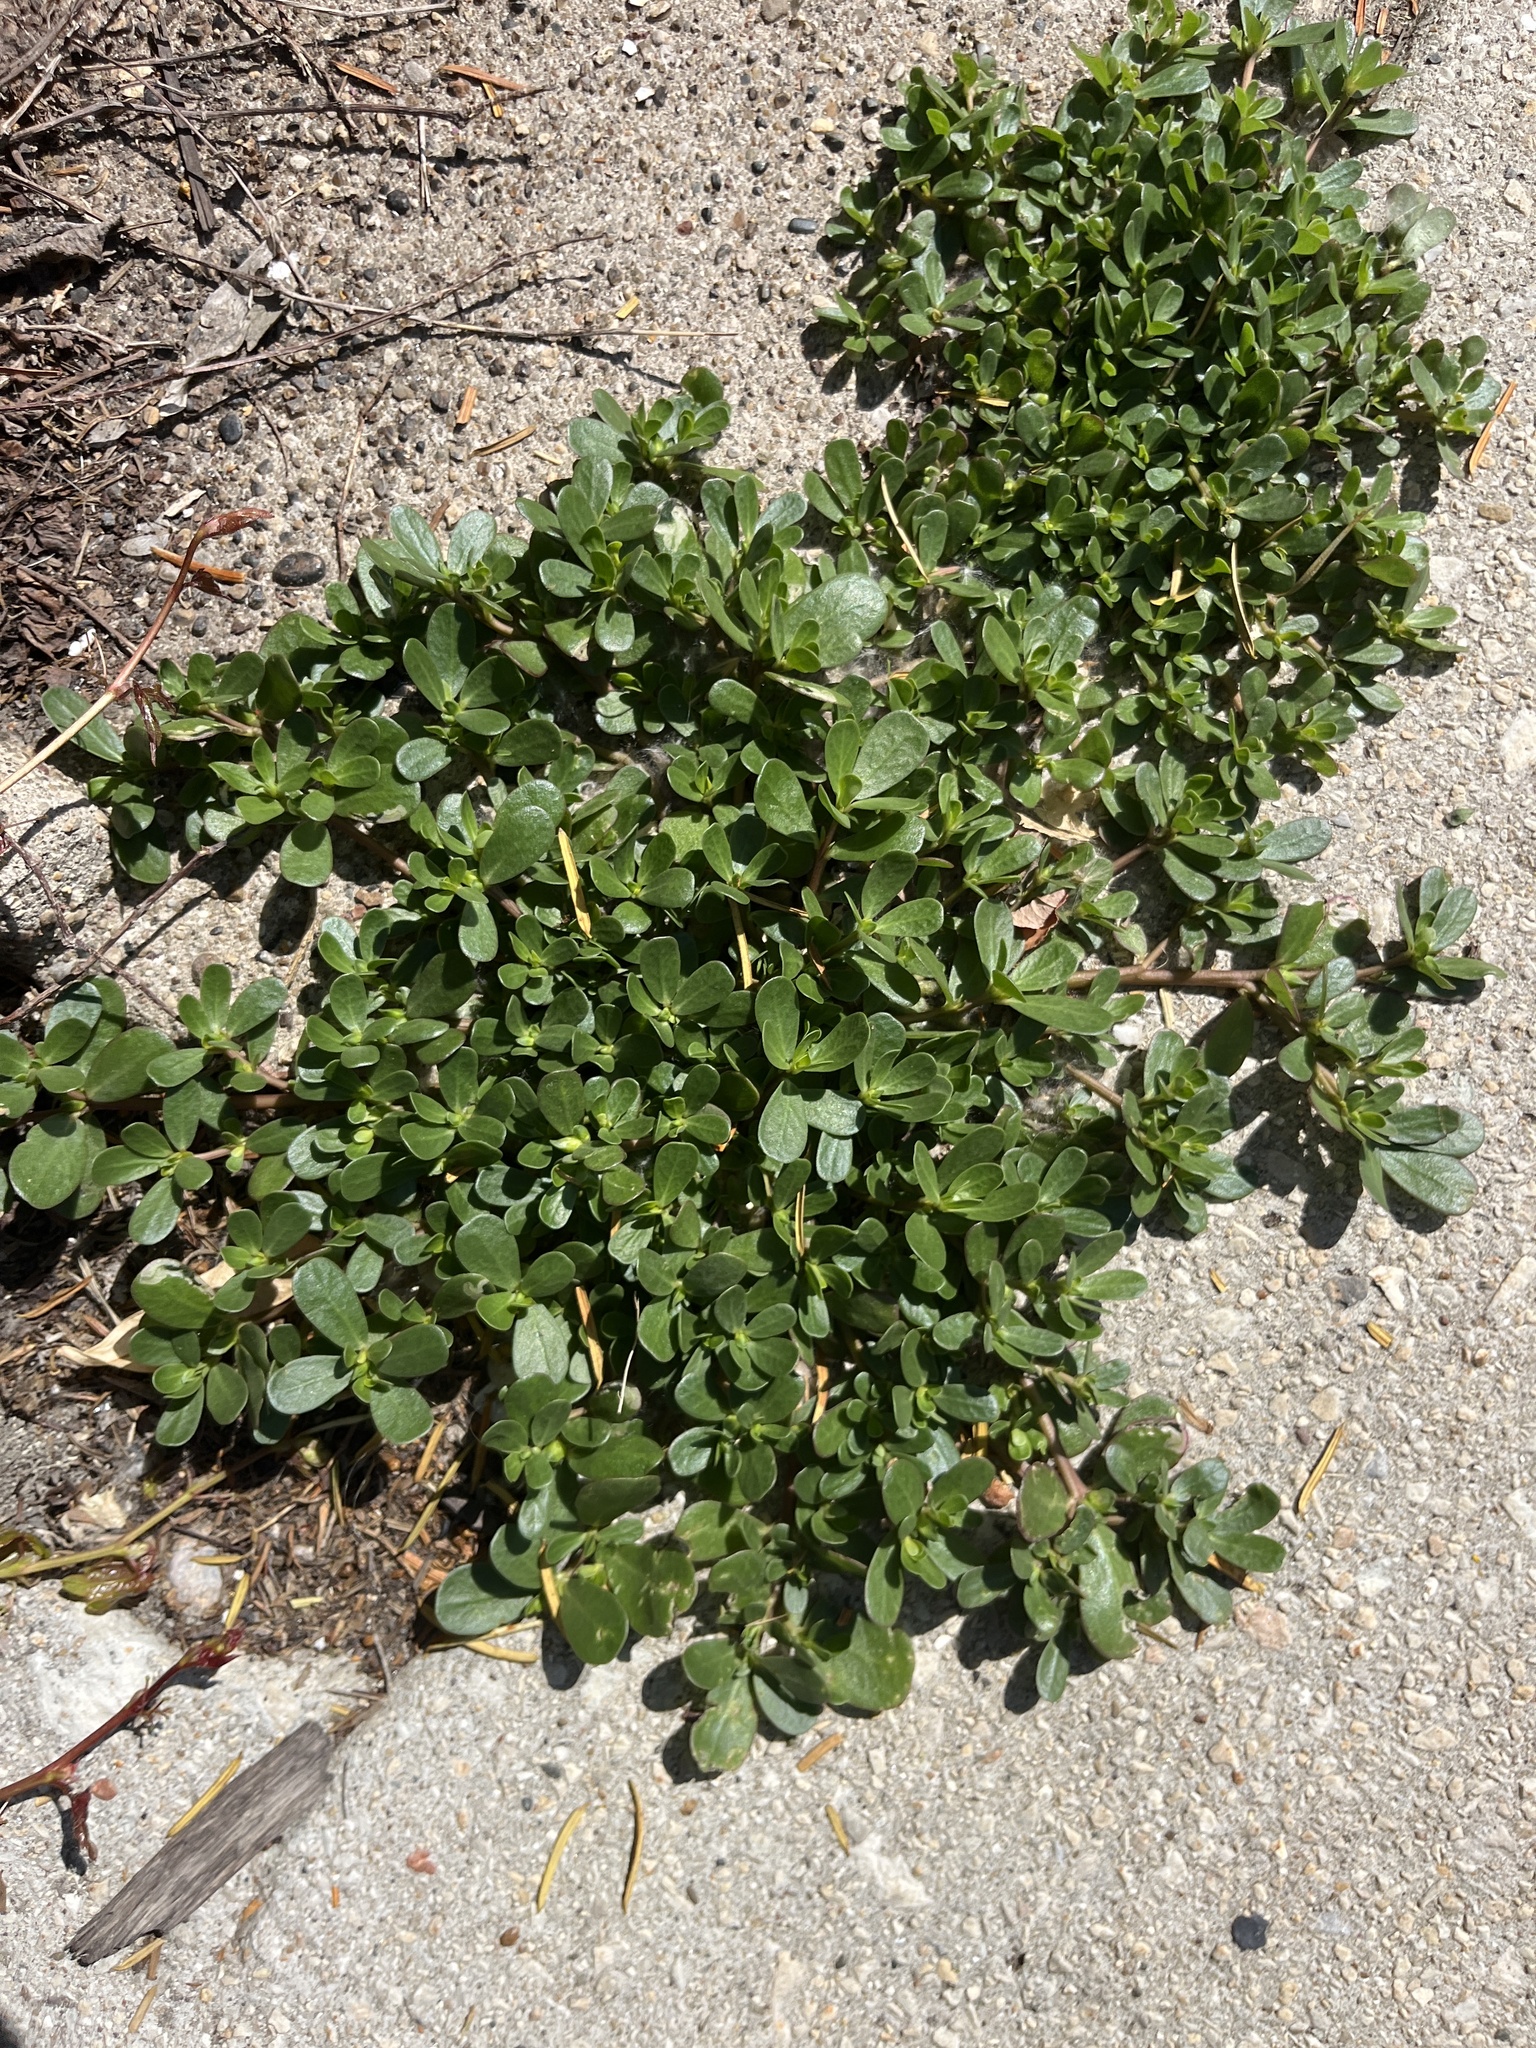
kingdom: Plantae
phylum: Tracheophyta
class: Magnoliopsida
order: Caryophyllales
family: Portulacaceae
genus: Portulaca
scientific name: Portulaca oleracea
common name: Common purslane
